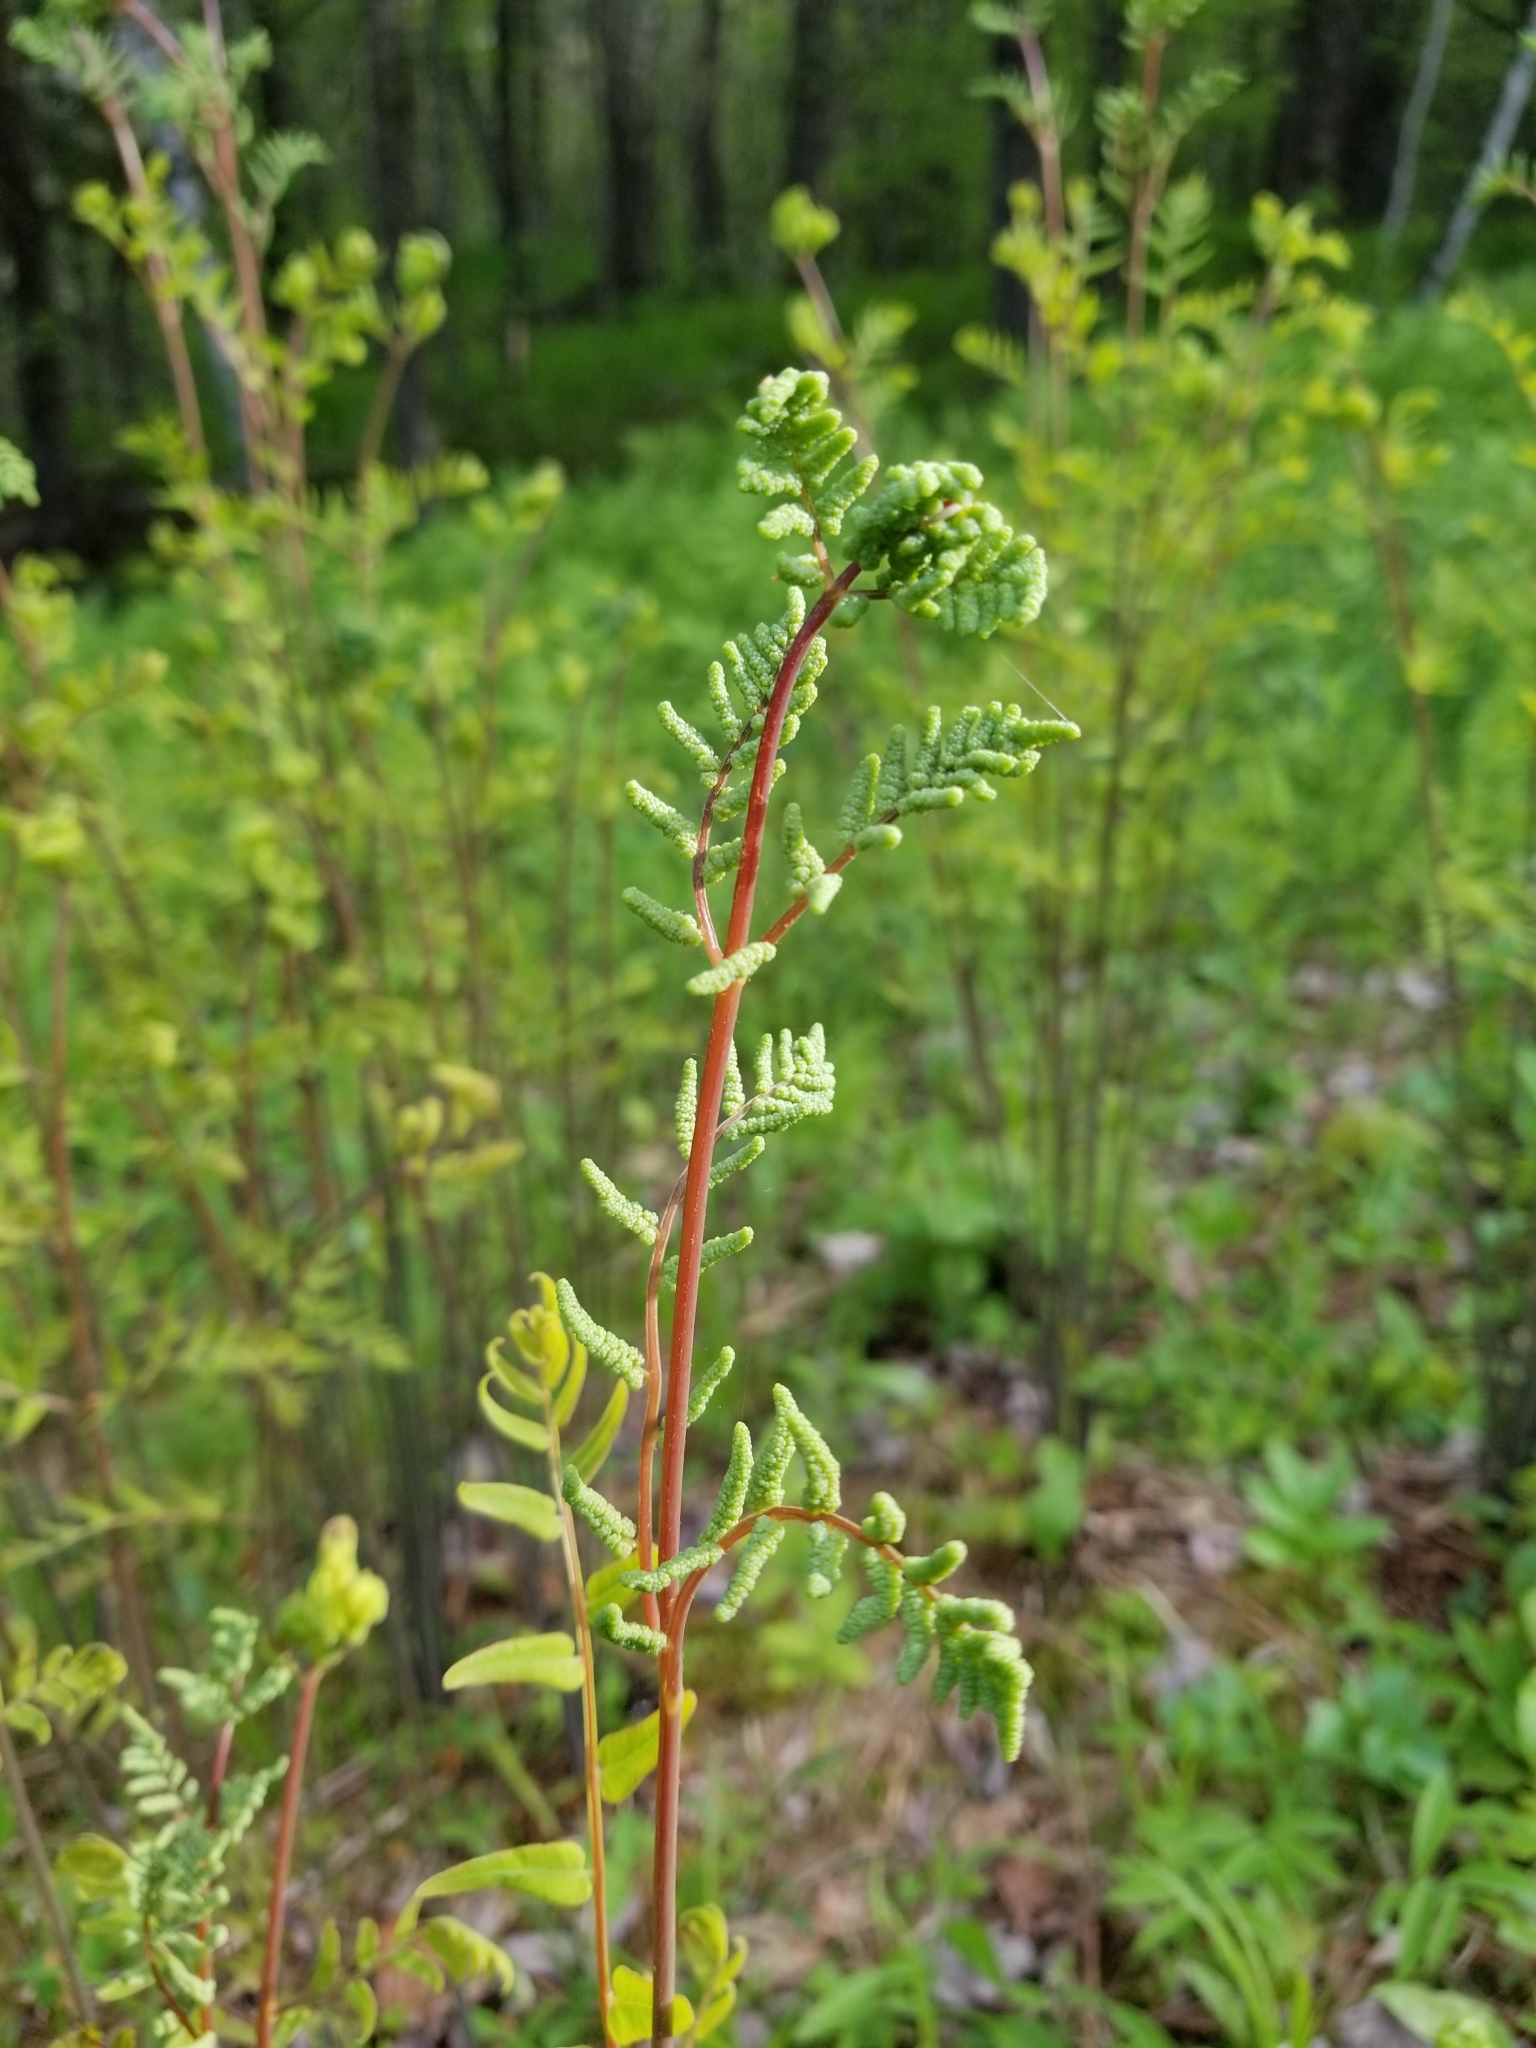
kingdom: Plantae
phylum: Tracheophyta
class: Polypodiopsida
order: Osmundales
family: Osmundaceae
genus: Osmunda
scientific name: Osmunda spectabilis
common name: American royal fern
